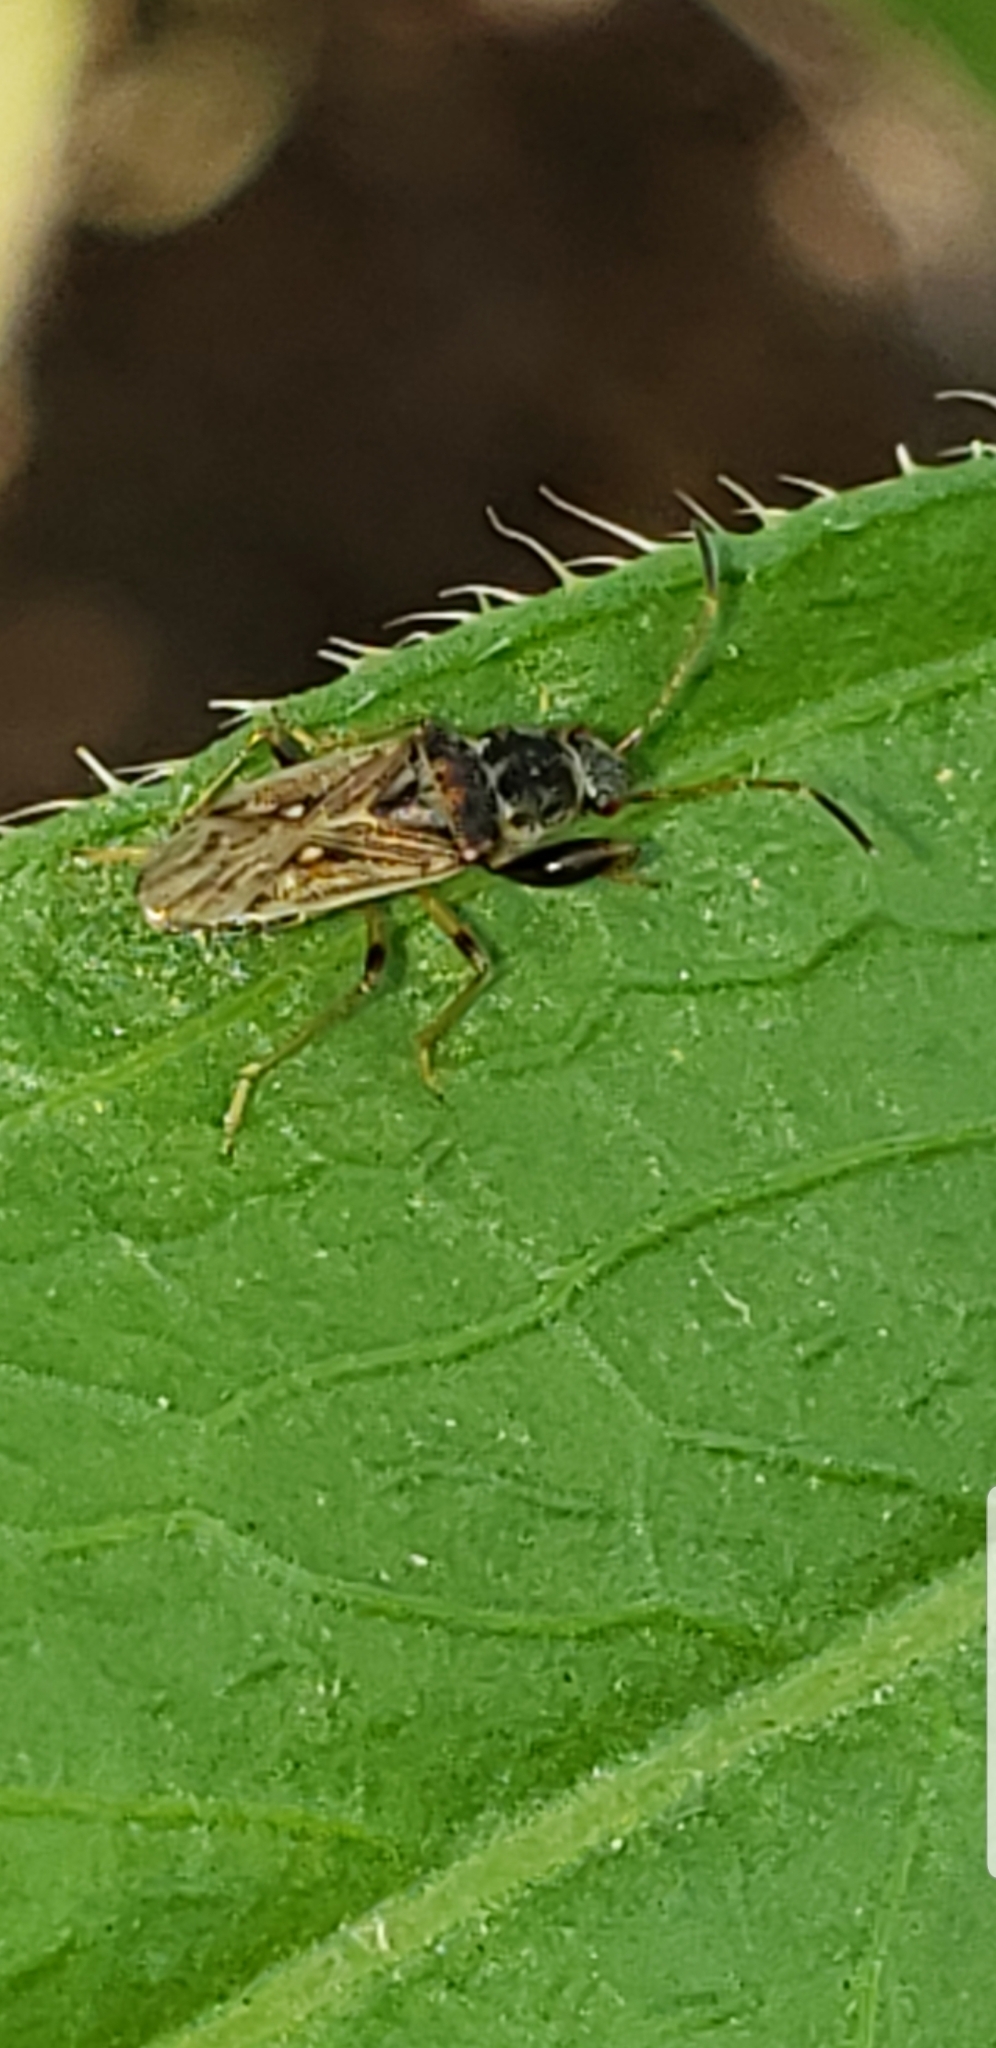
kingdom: Animalia
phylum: Arthropoda
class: Insecta
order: Hemiptera
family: Rhyparochromidae
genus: Pseudopachybrachius
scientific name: Pseudopachybrachius basalis
